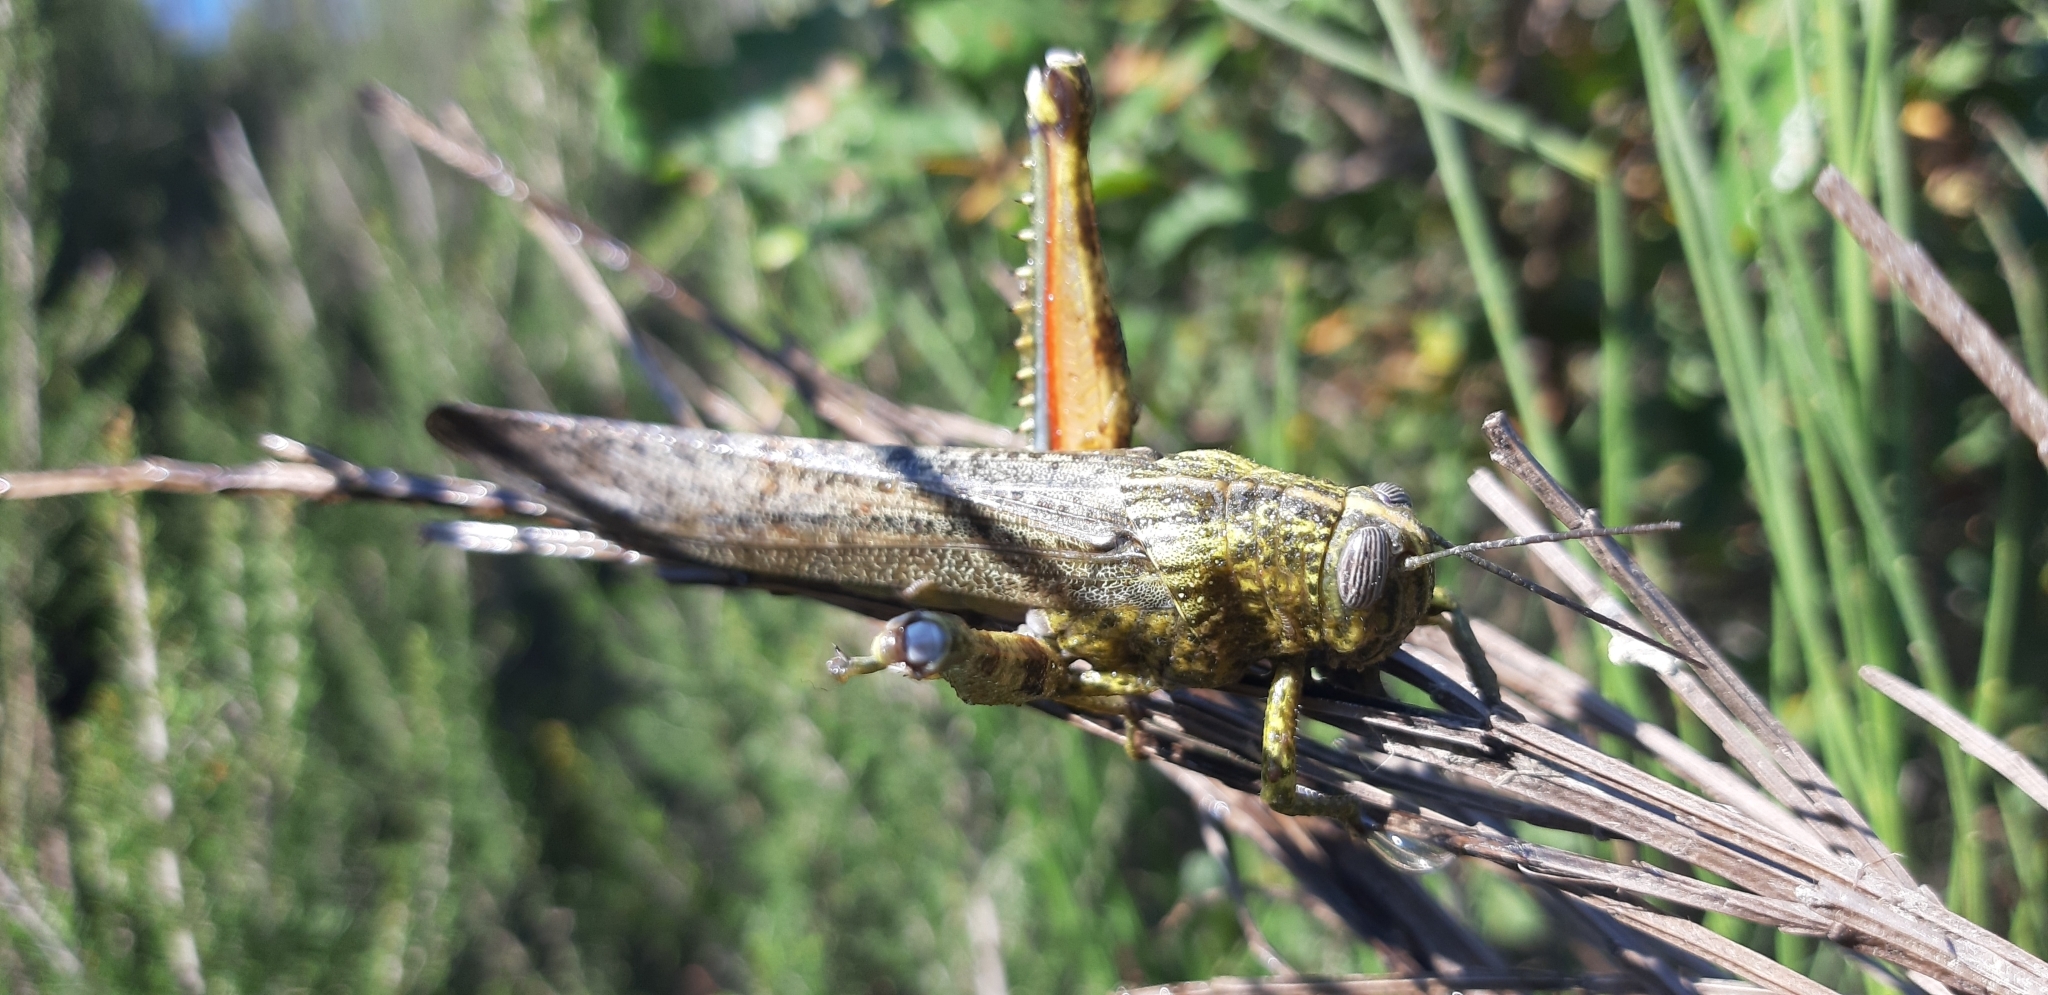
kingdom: Animalia
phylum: Arthropoda
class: Insecta
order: Orthoptera
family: Acrididae
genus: Anacridium
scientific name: Anacridium aegyptium
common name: Egyptian grasshopper
